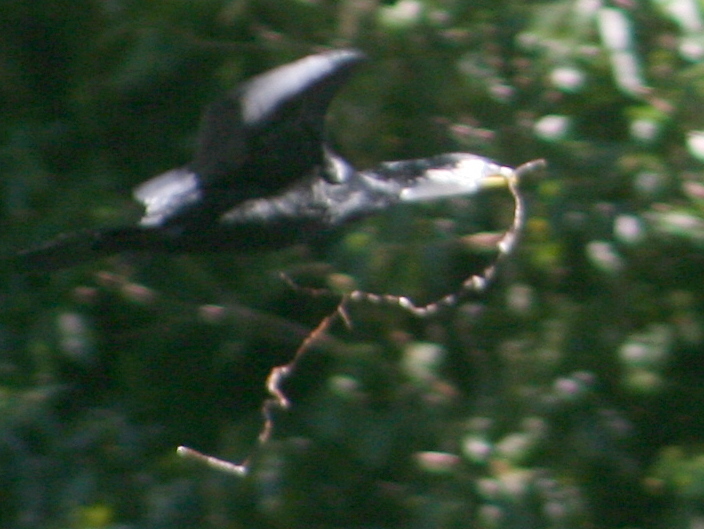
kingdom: Animalia
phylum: Chordata
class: Aves
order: Suliformes
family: Phalacrocoracidae
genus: Microcarbo
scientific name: Microcarbo melanoleucos
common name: Little pied cormorant
